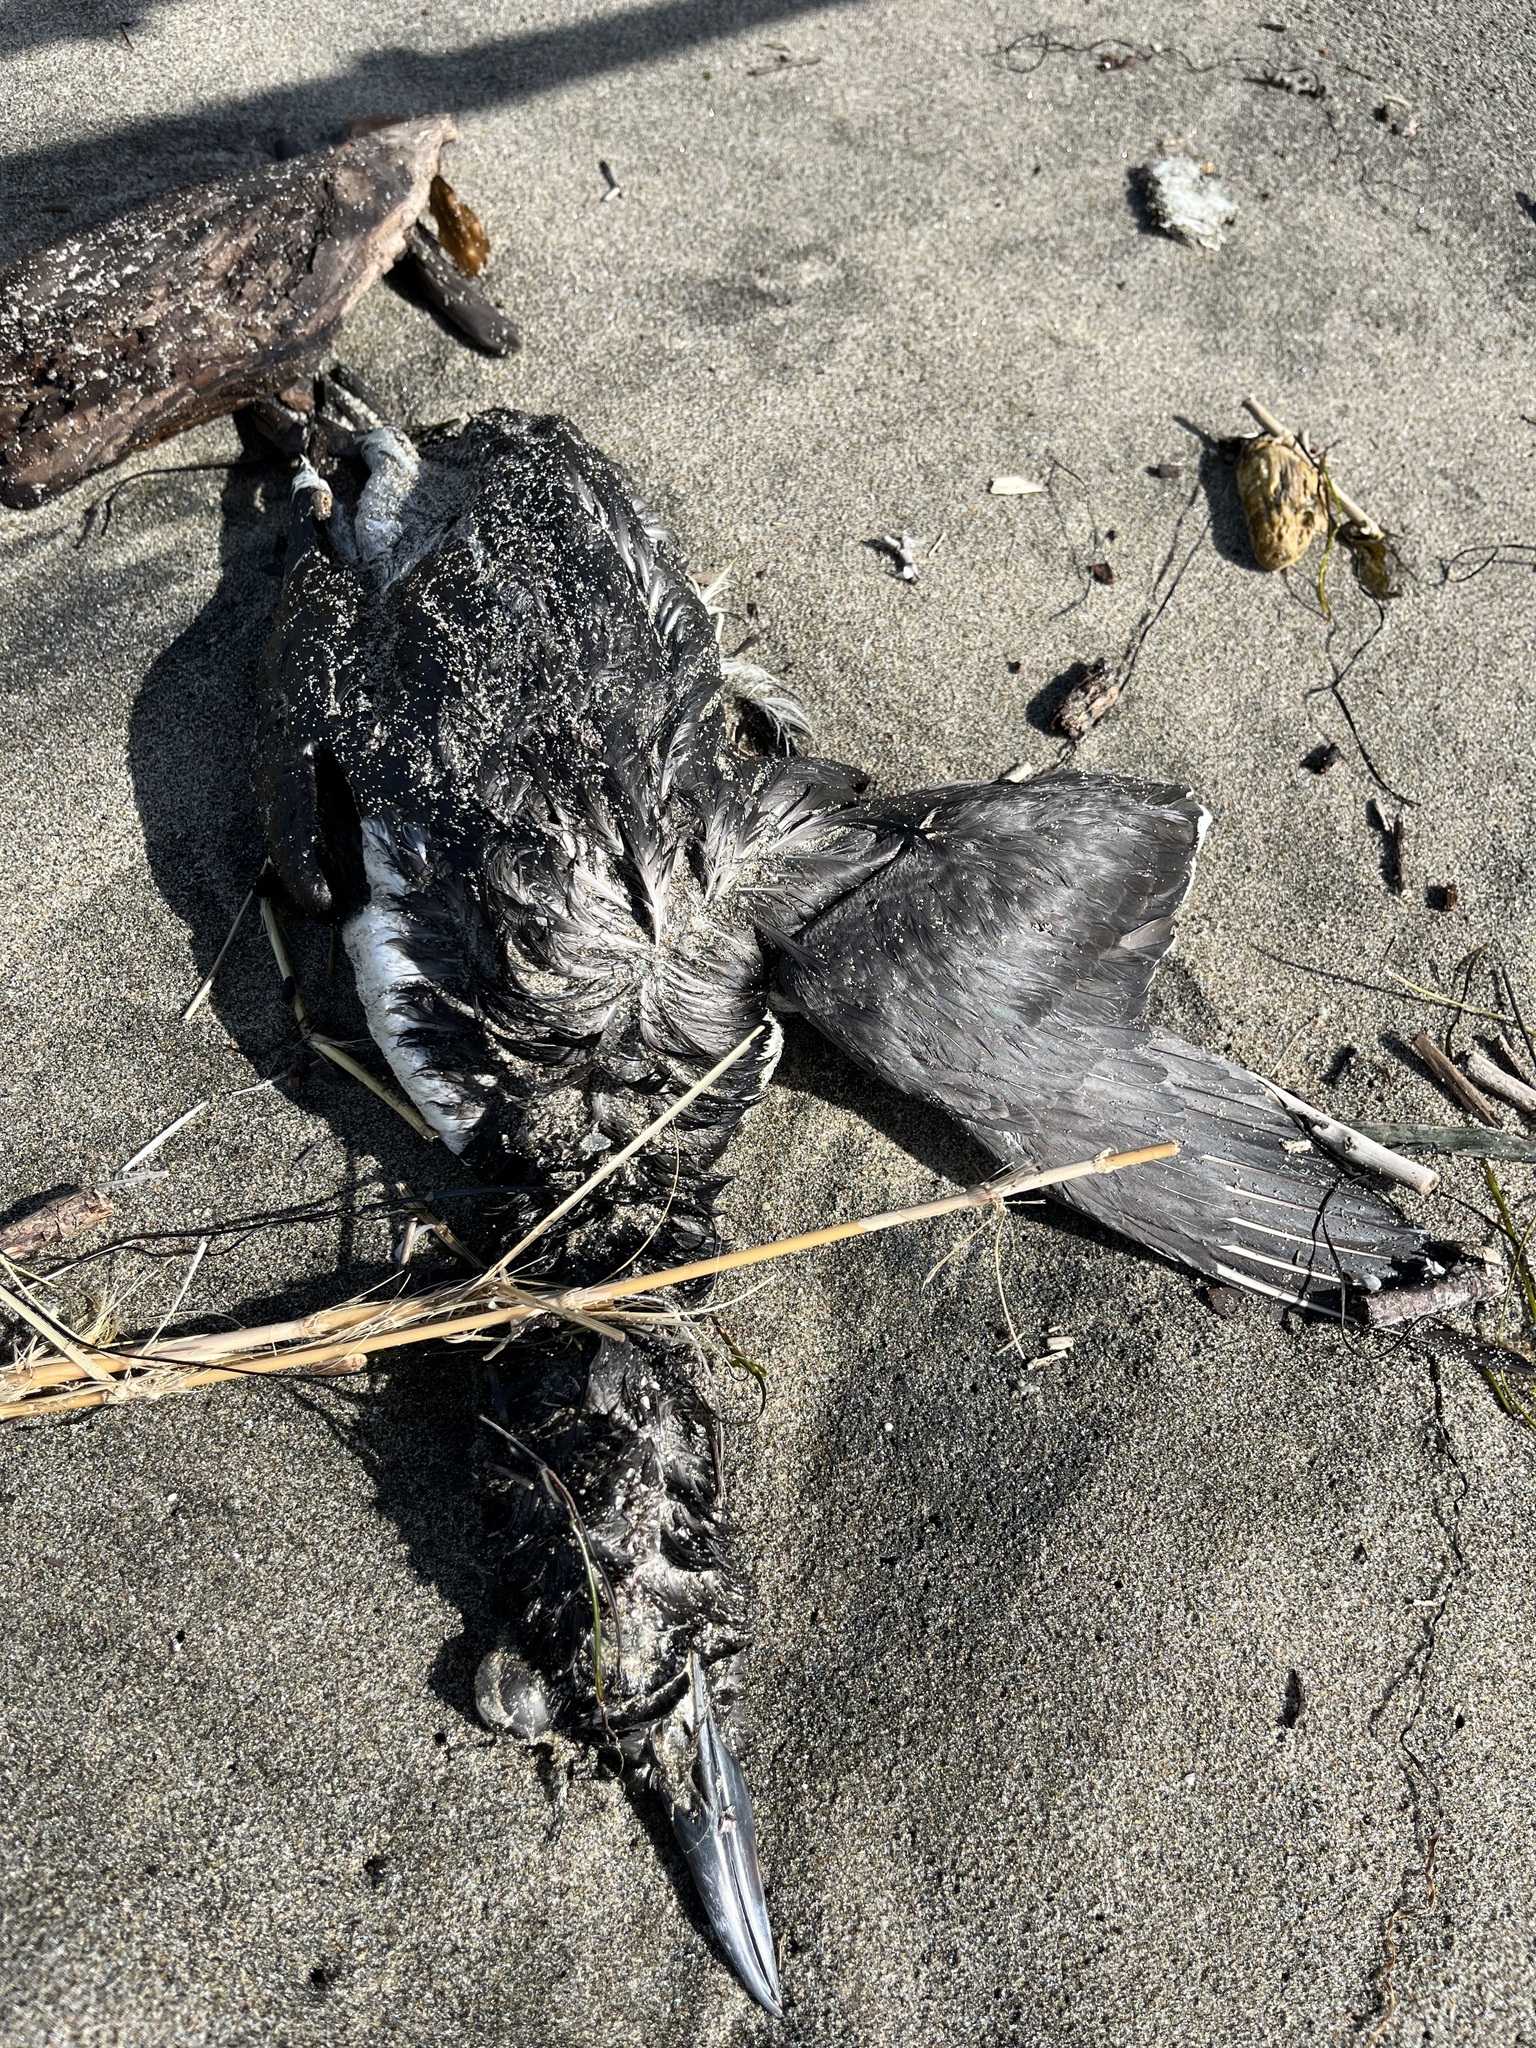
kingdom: Animalia
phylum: Chordata
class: Aves
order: Charadriiformes
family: Alcidae
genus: Uria
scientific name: Uria aalge
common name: Common murre
